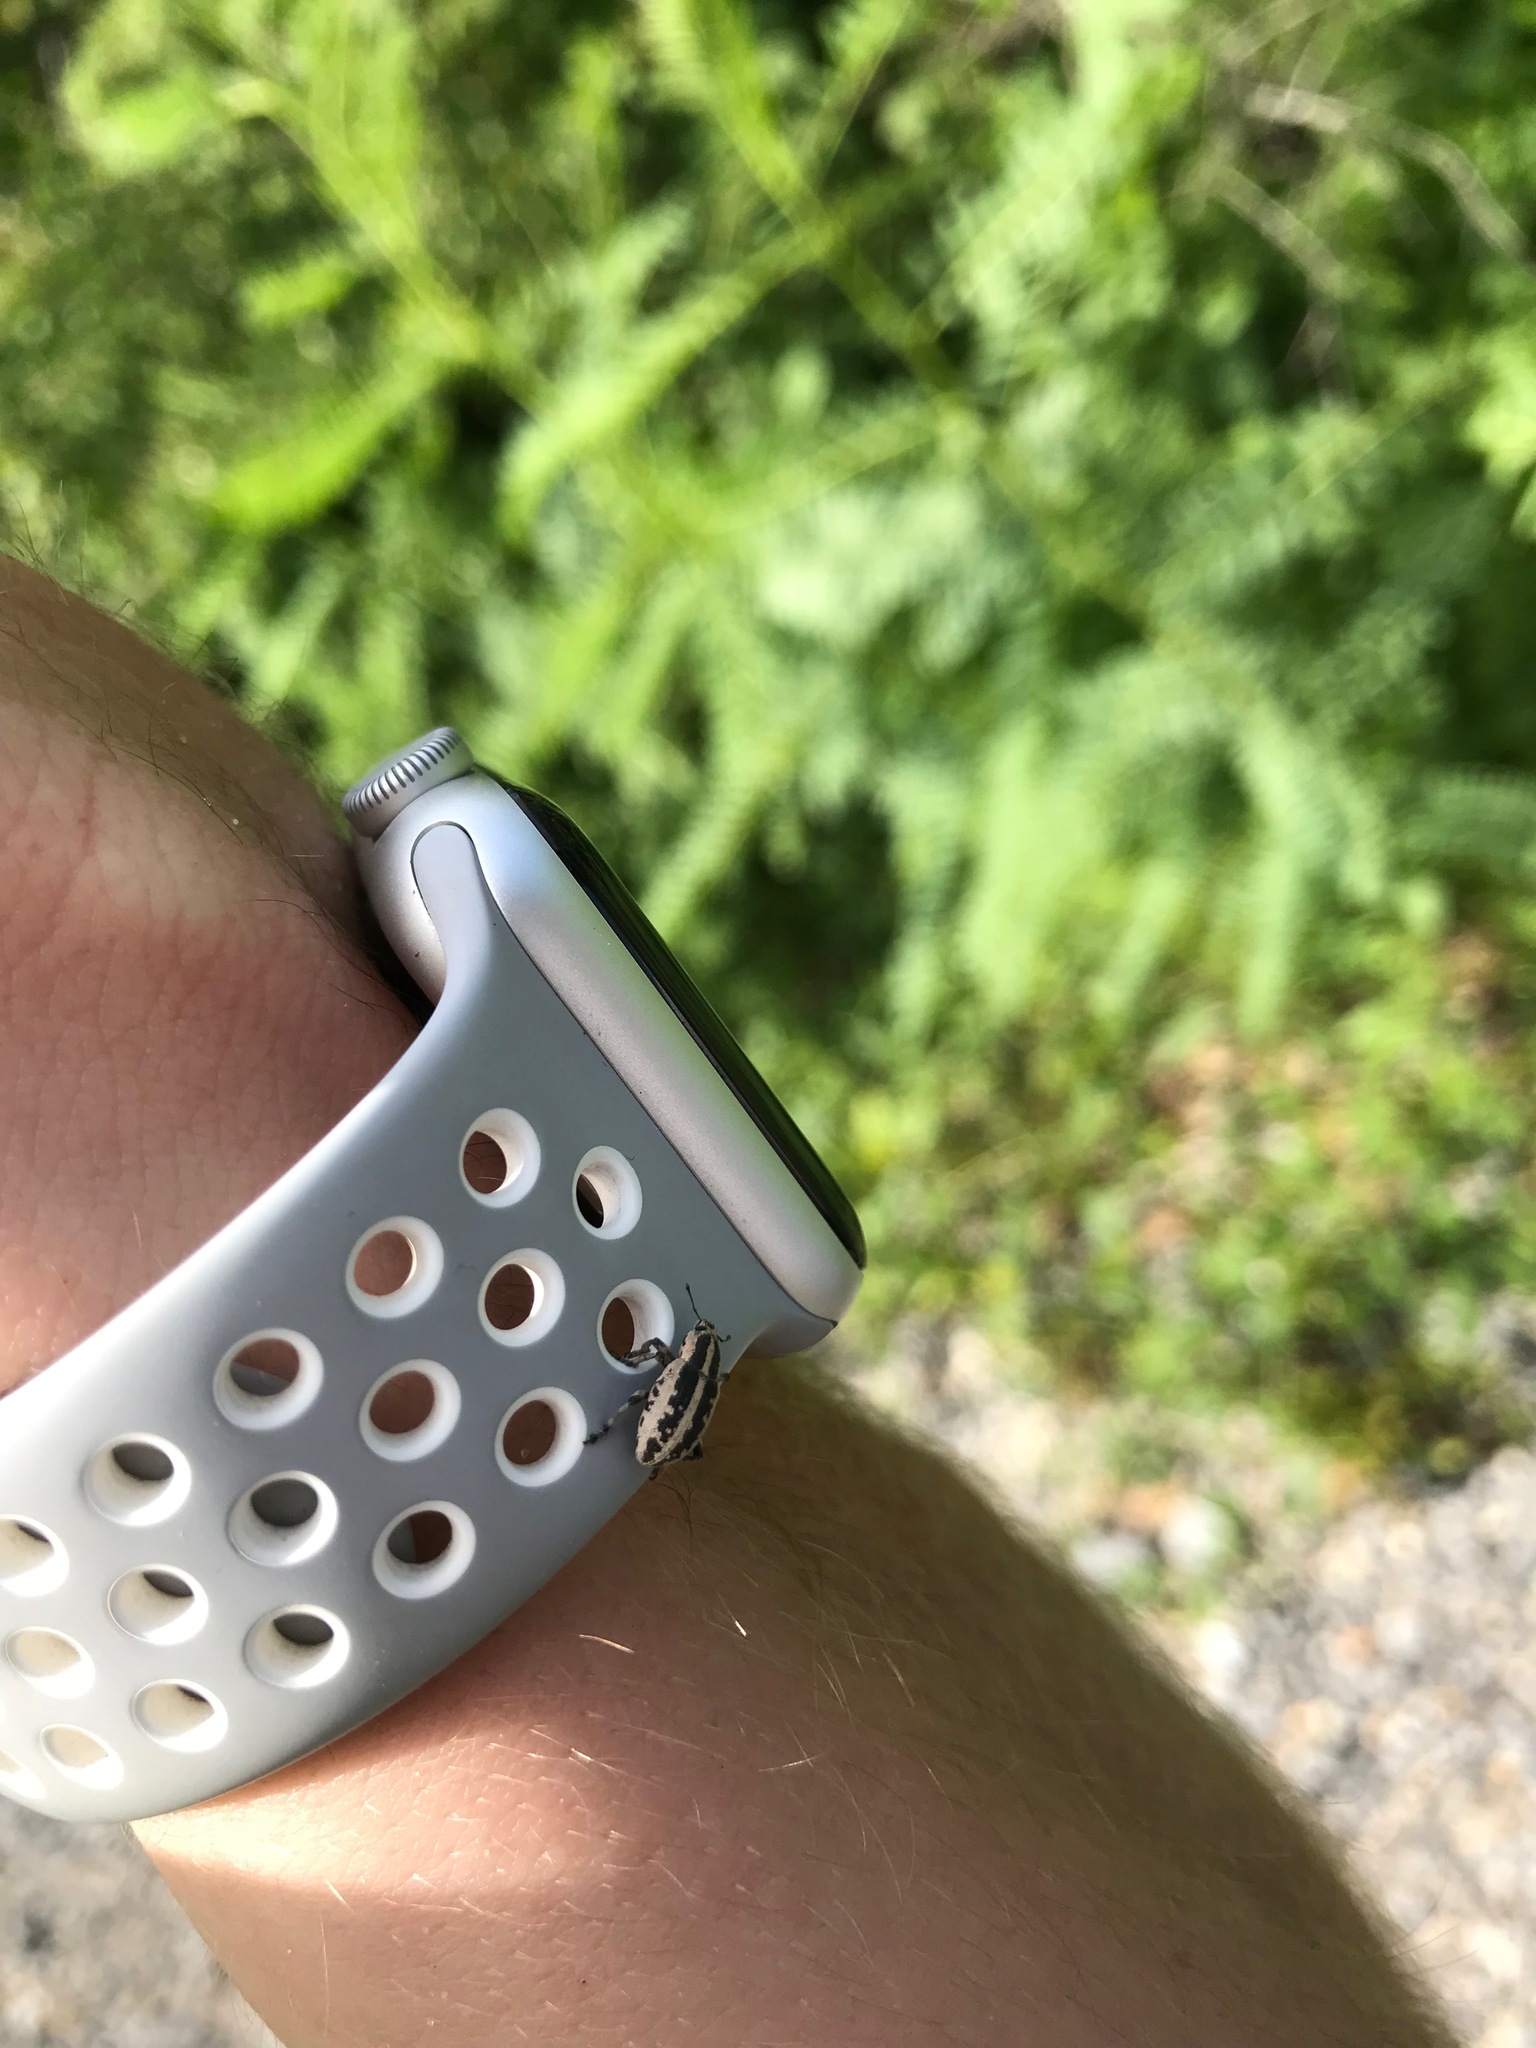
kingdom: Animalia
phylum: Arthropoda
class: Insecta
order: Coleoptera
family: Curculionidae
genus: Eudiagogus
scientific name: Eudiagogus rosenschoeldi
